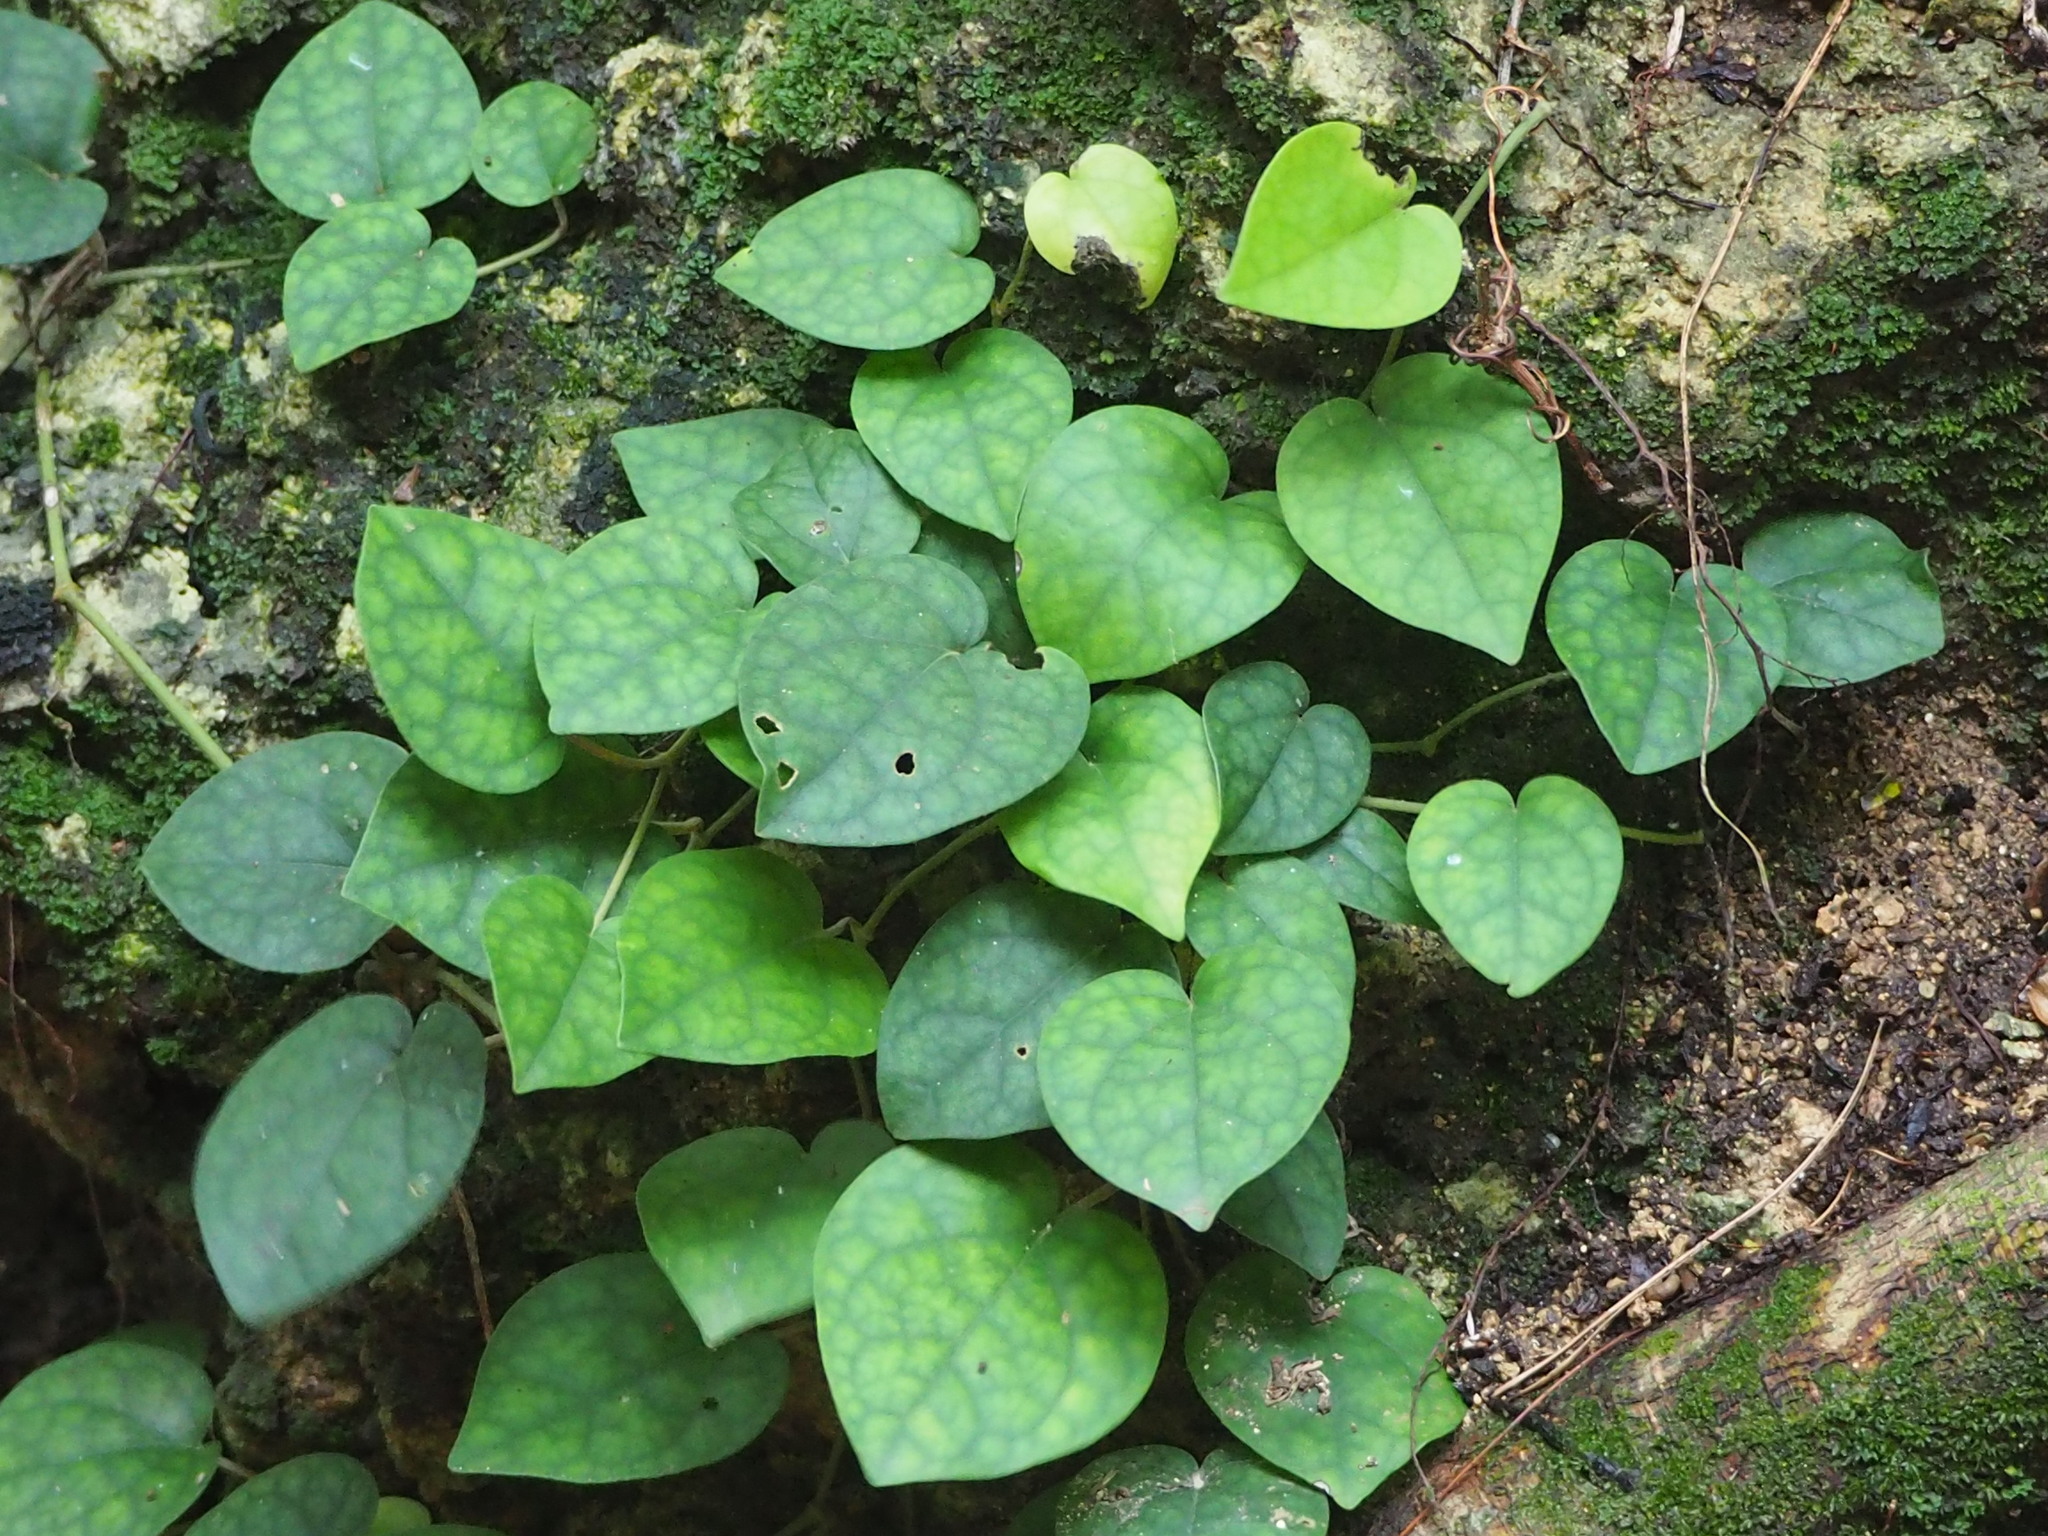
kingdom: Plantae
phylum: Tracheophyta
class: Magnoliopsida
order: Piperales
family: Piperaceae
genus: Piper
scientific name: Piper kadsura
